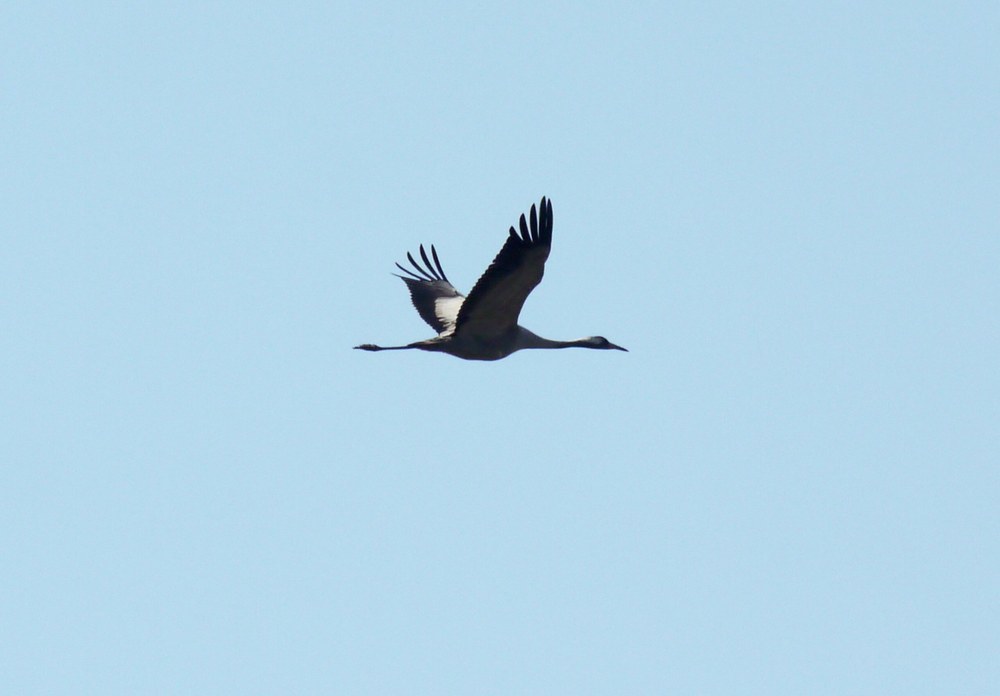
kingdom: Animalia
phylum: Chordata
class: Aves
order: Gruiformes
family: Gruidae
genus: Grus
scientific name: Grus grus
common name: Common crane
